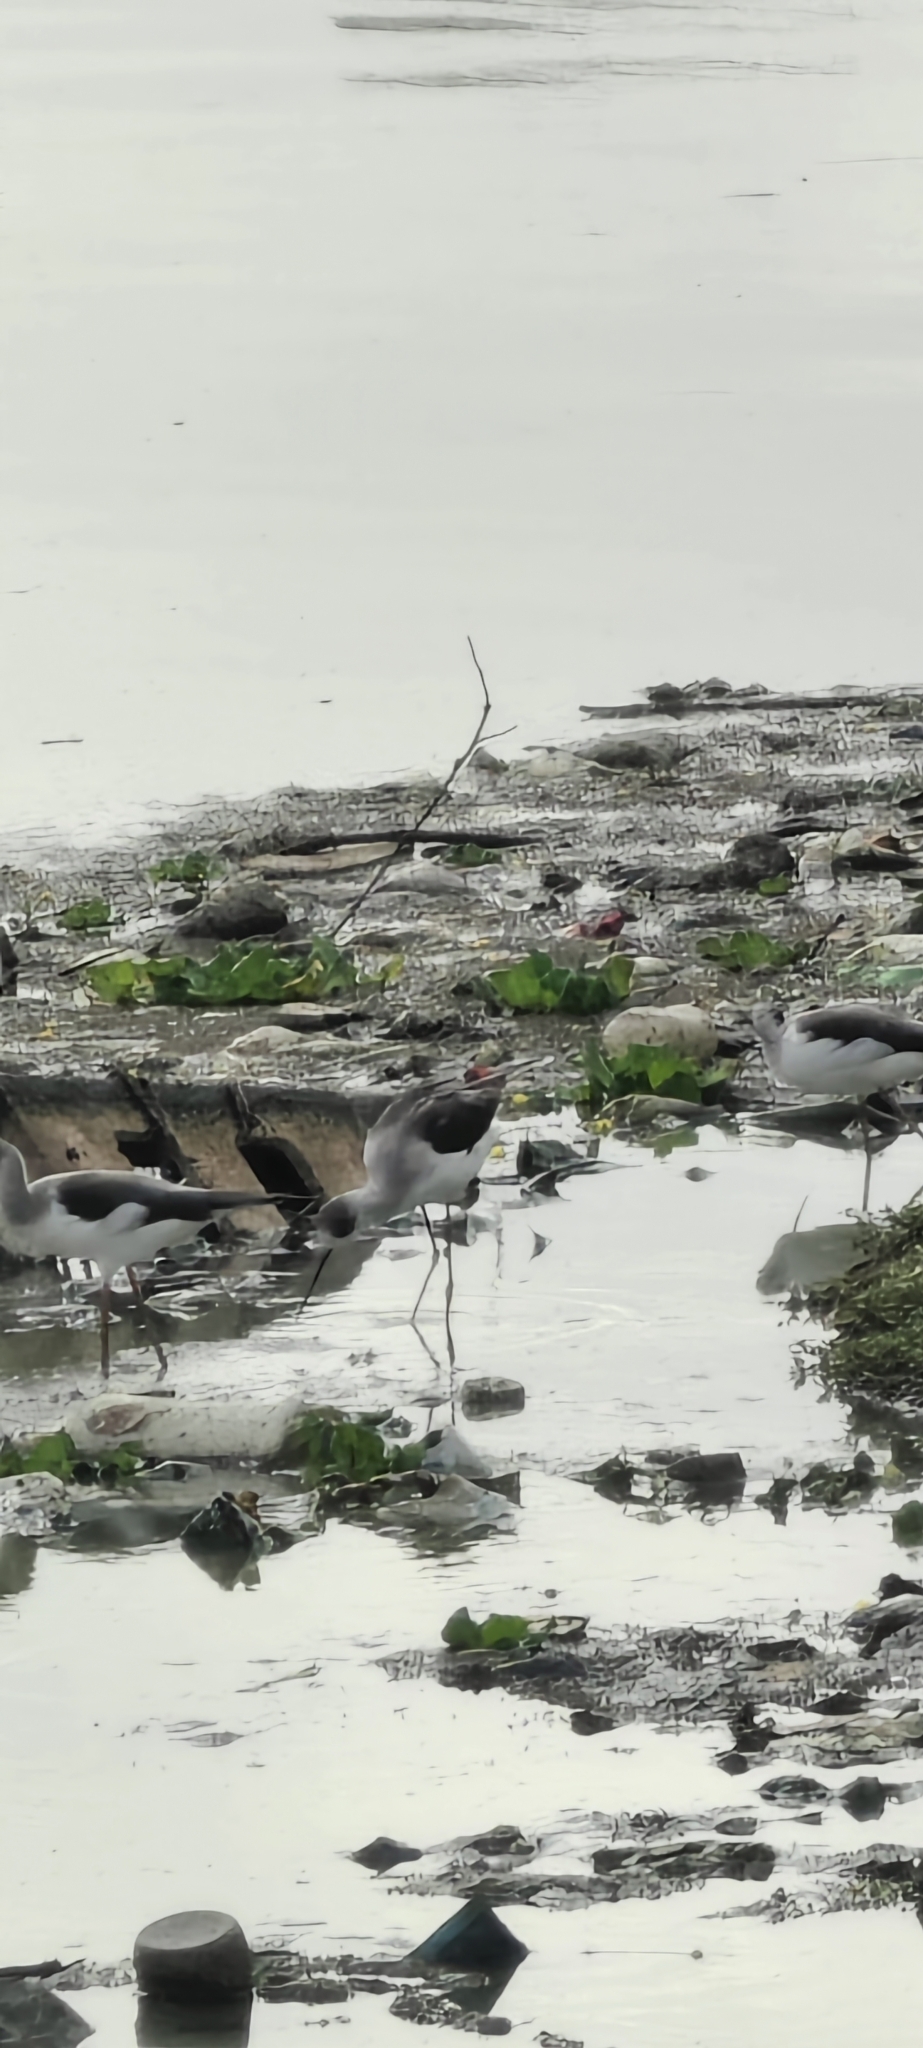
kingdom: Animalia
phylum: Chordata
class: Aves
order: Charadriiformes
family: Recurvirostridae
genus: Himantopus
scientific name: Himantopus himantopus
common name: Black-winged stilt
